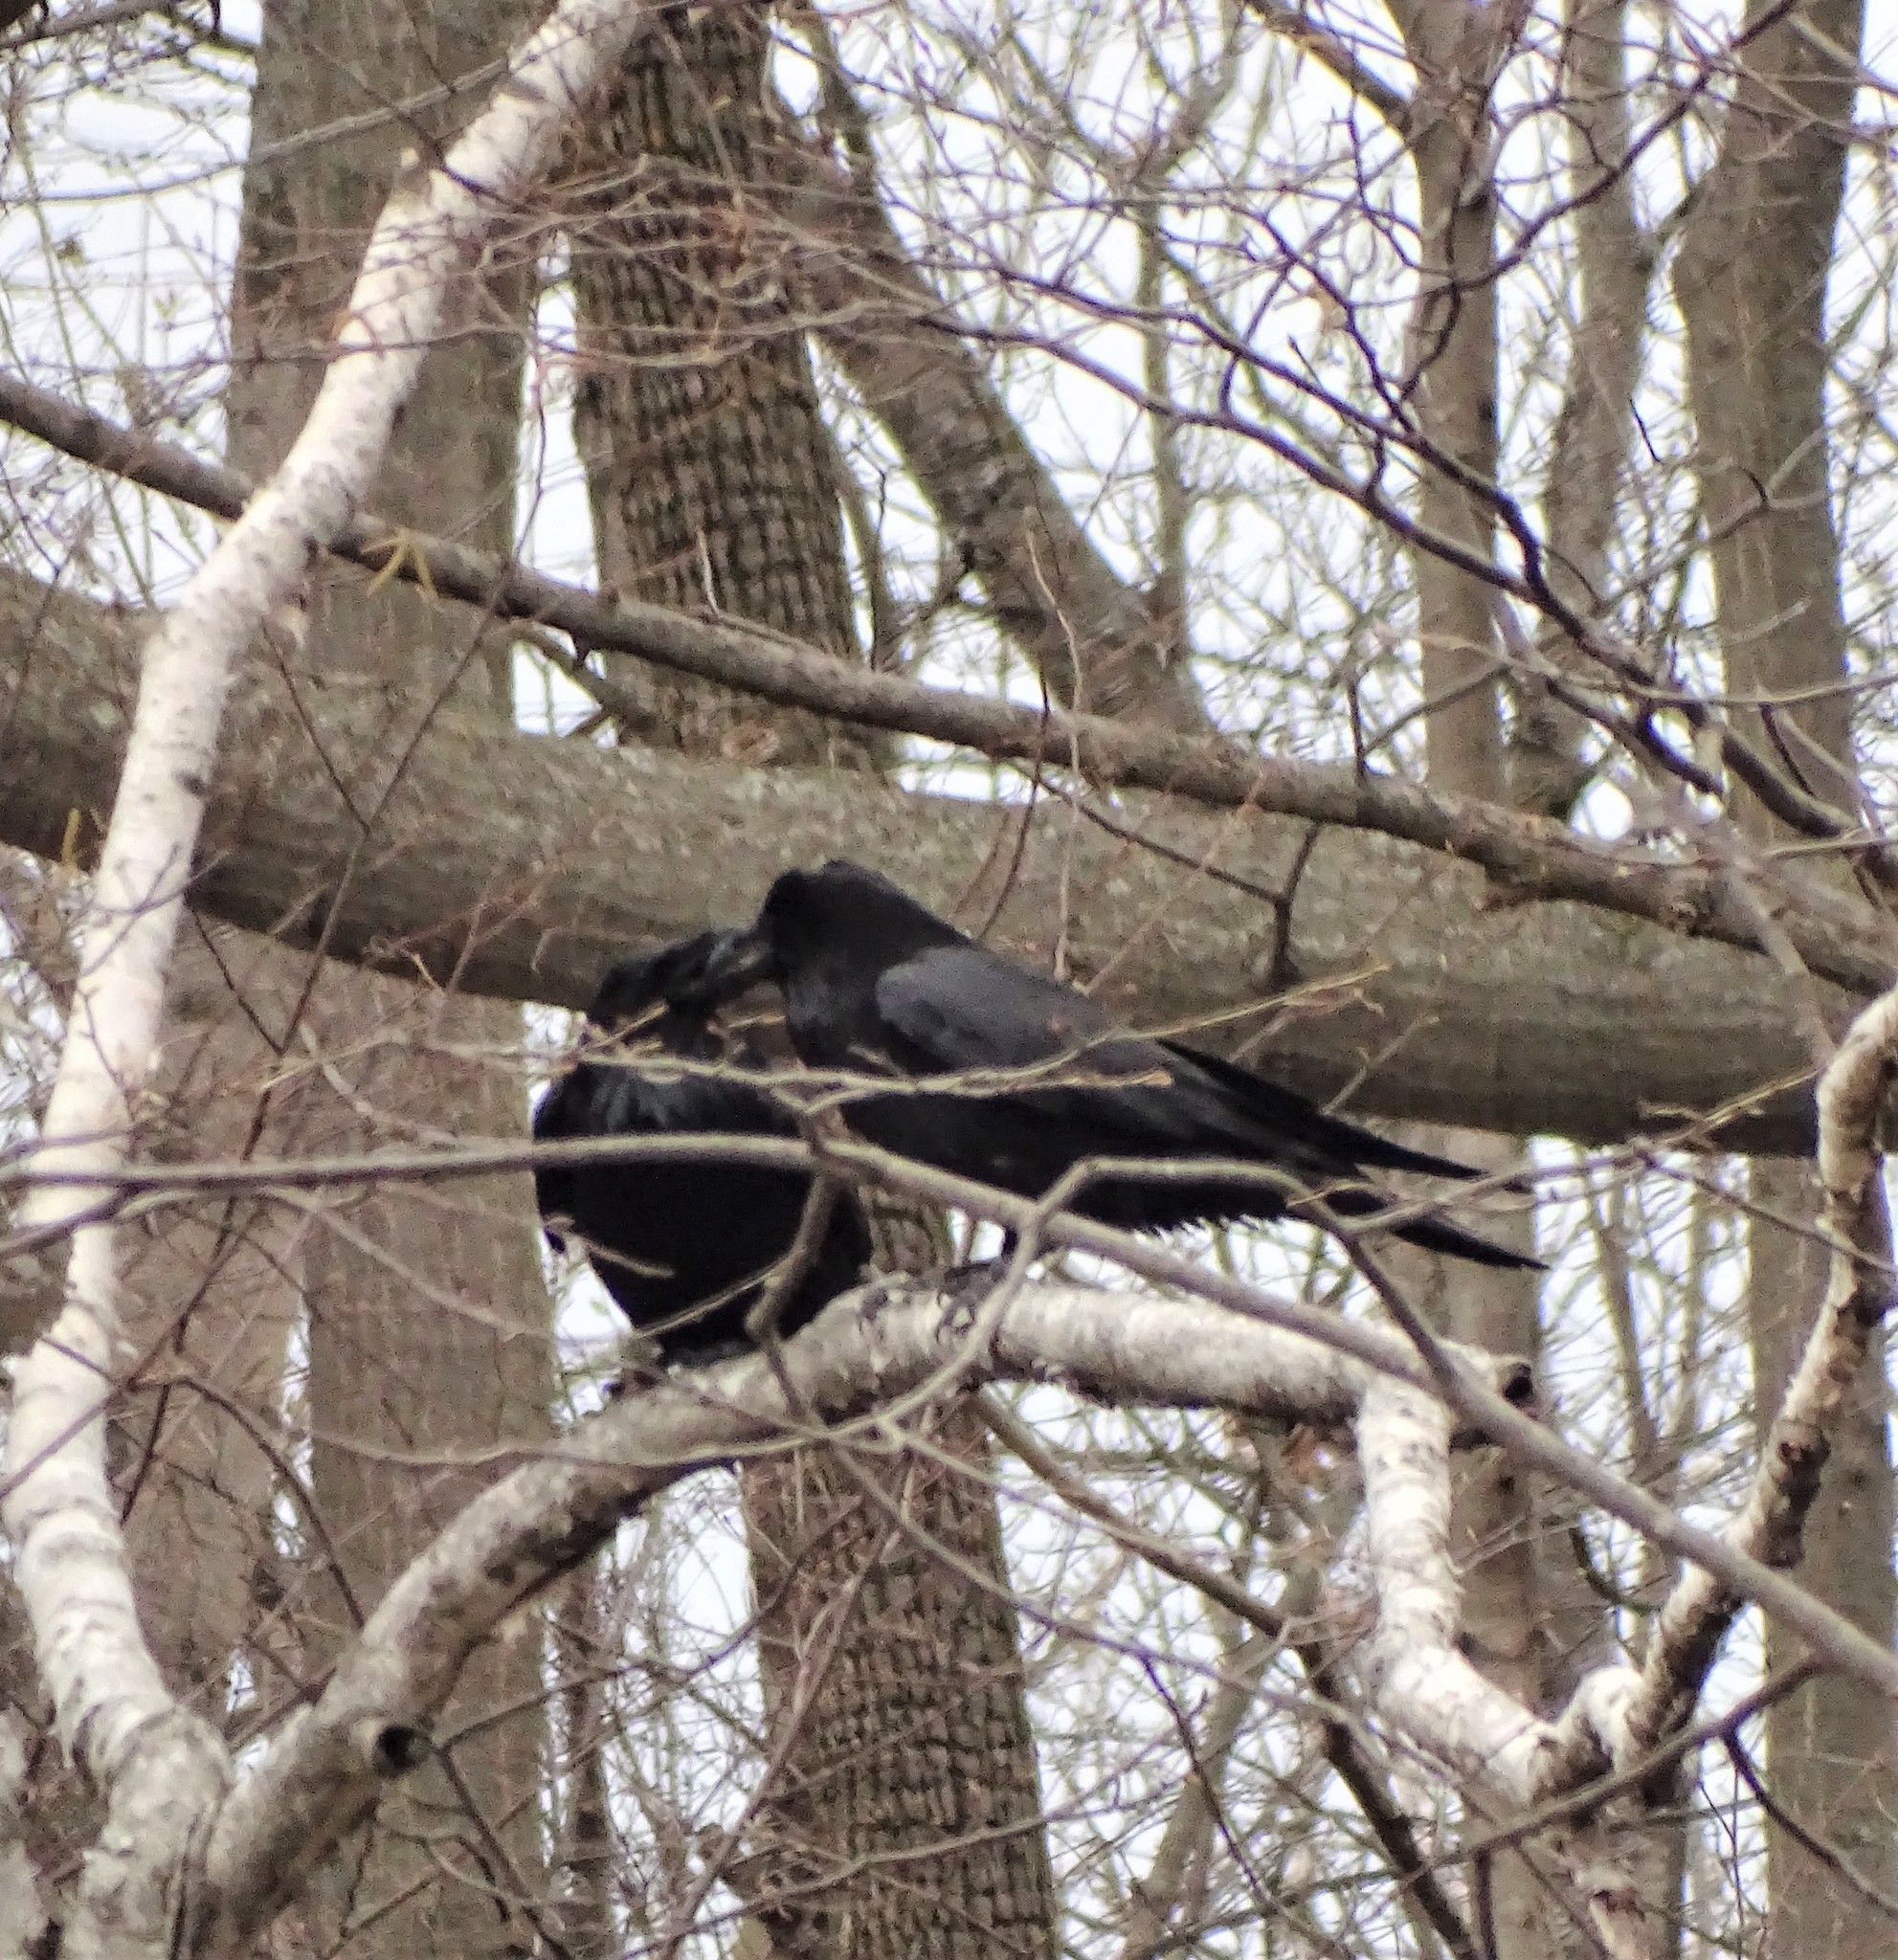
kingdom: Animalia
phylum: Chordata
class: Aves
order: Passeriformes
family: Corvidae
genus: Corvus
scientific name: Corvus corax
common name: Common raven
